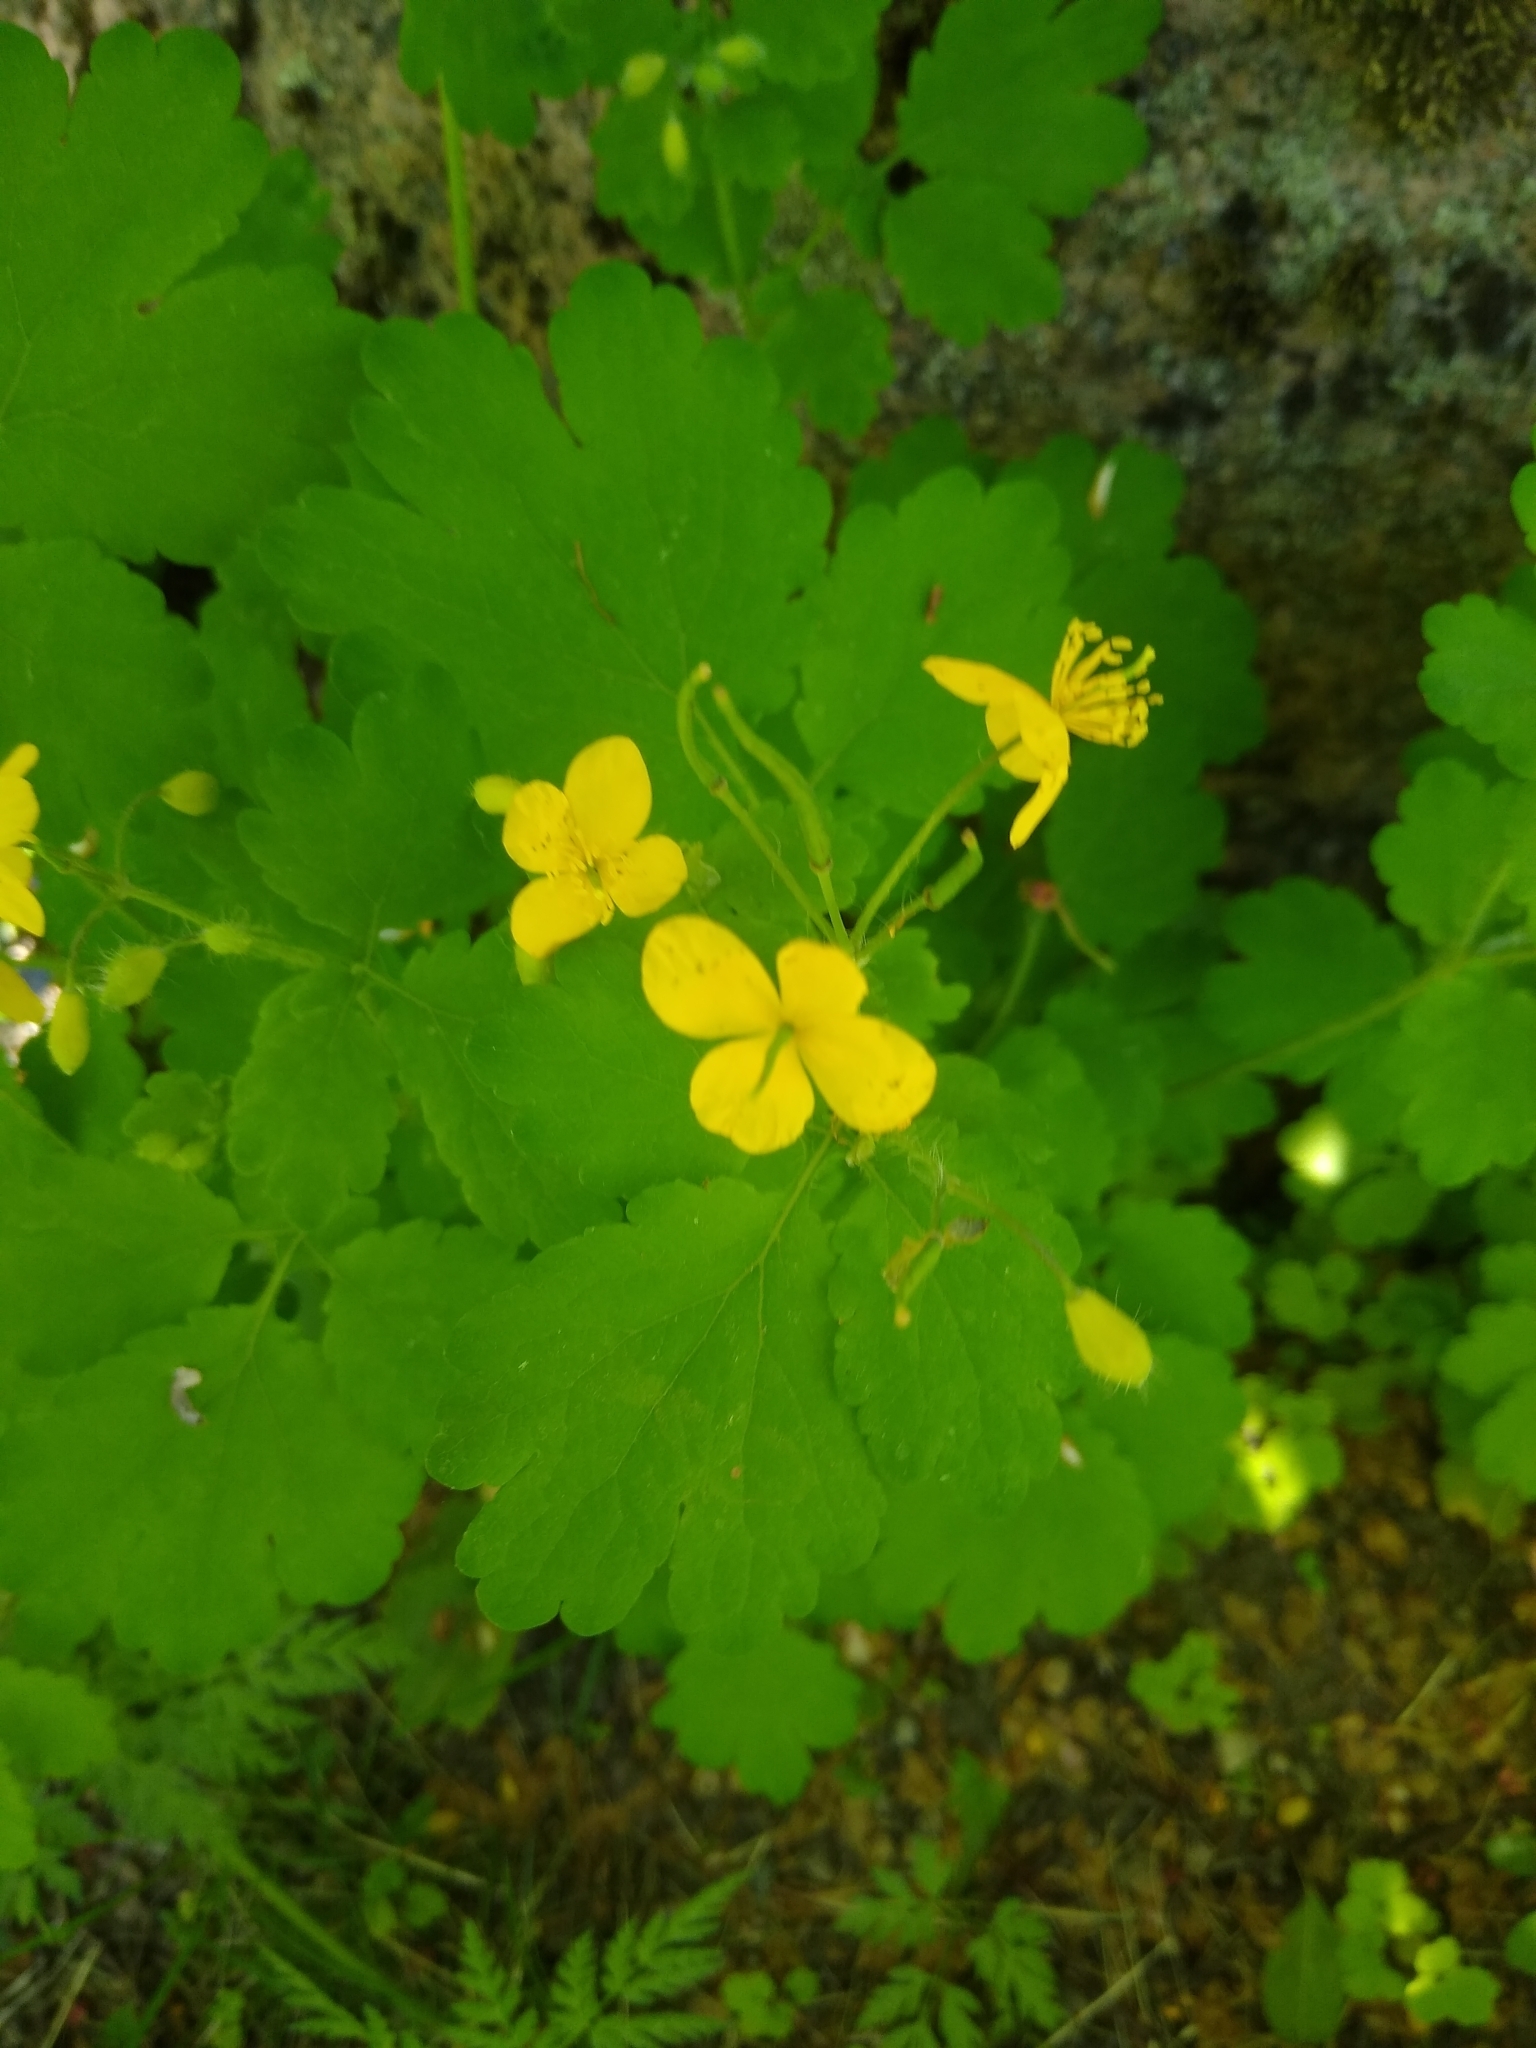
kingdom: Plantae
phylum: Tracheophyta
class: Magnoliopsida
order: Ranunculales
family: Papaveraceae
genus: Chelidonium
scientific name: Chelidonium majus
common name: Greater celandine
